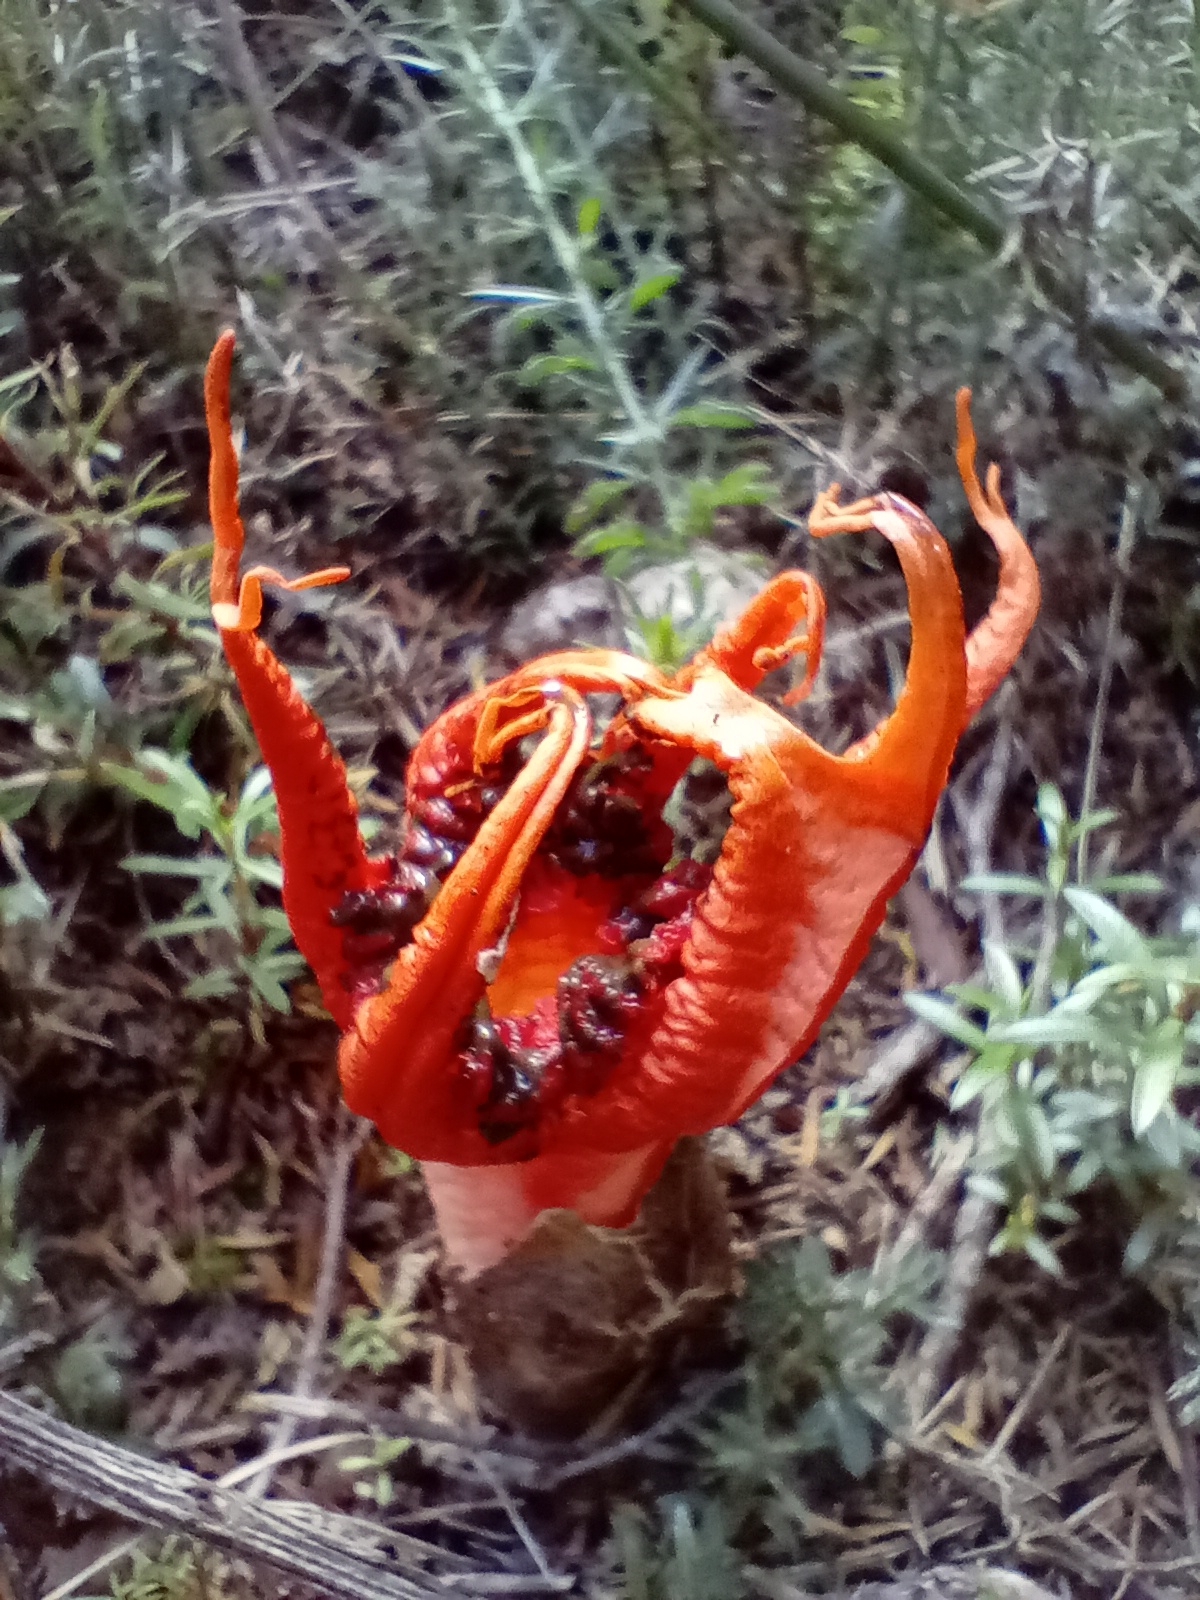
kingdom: Fungi
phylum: Basidiomycota
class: Agaricomycetes
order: Phallales
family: Phallaceae
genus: Aseroe
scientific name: Aseroe rubra
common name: Starfish fungus
